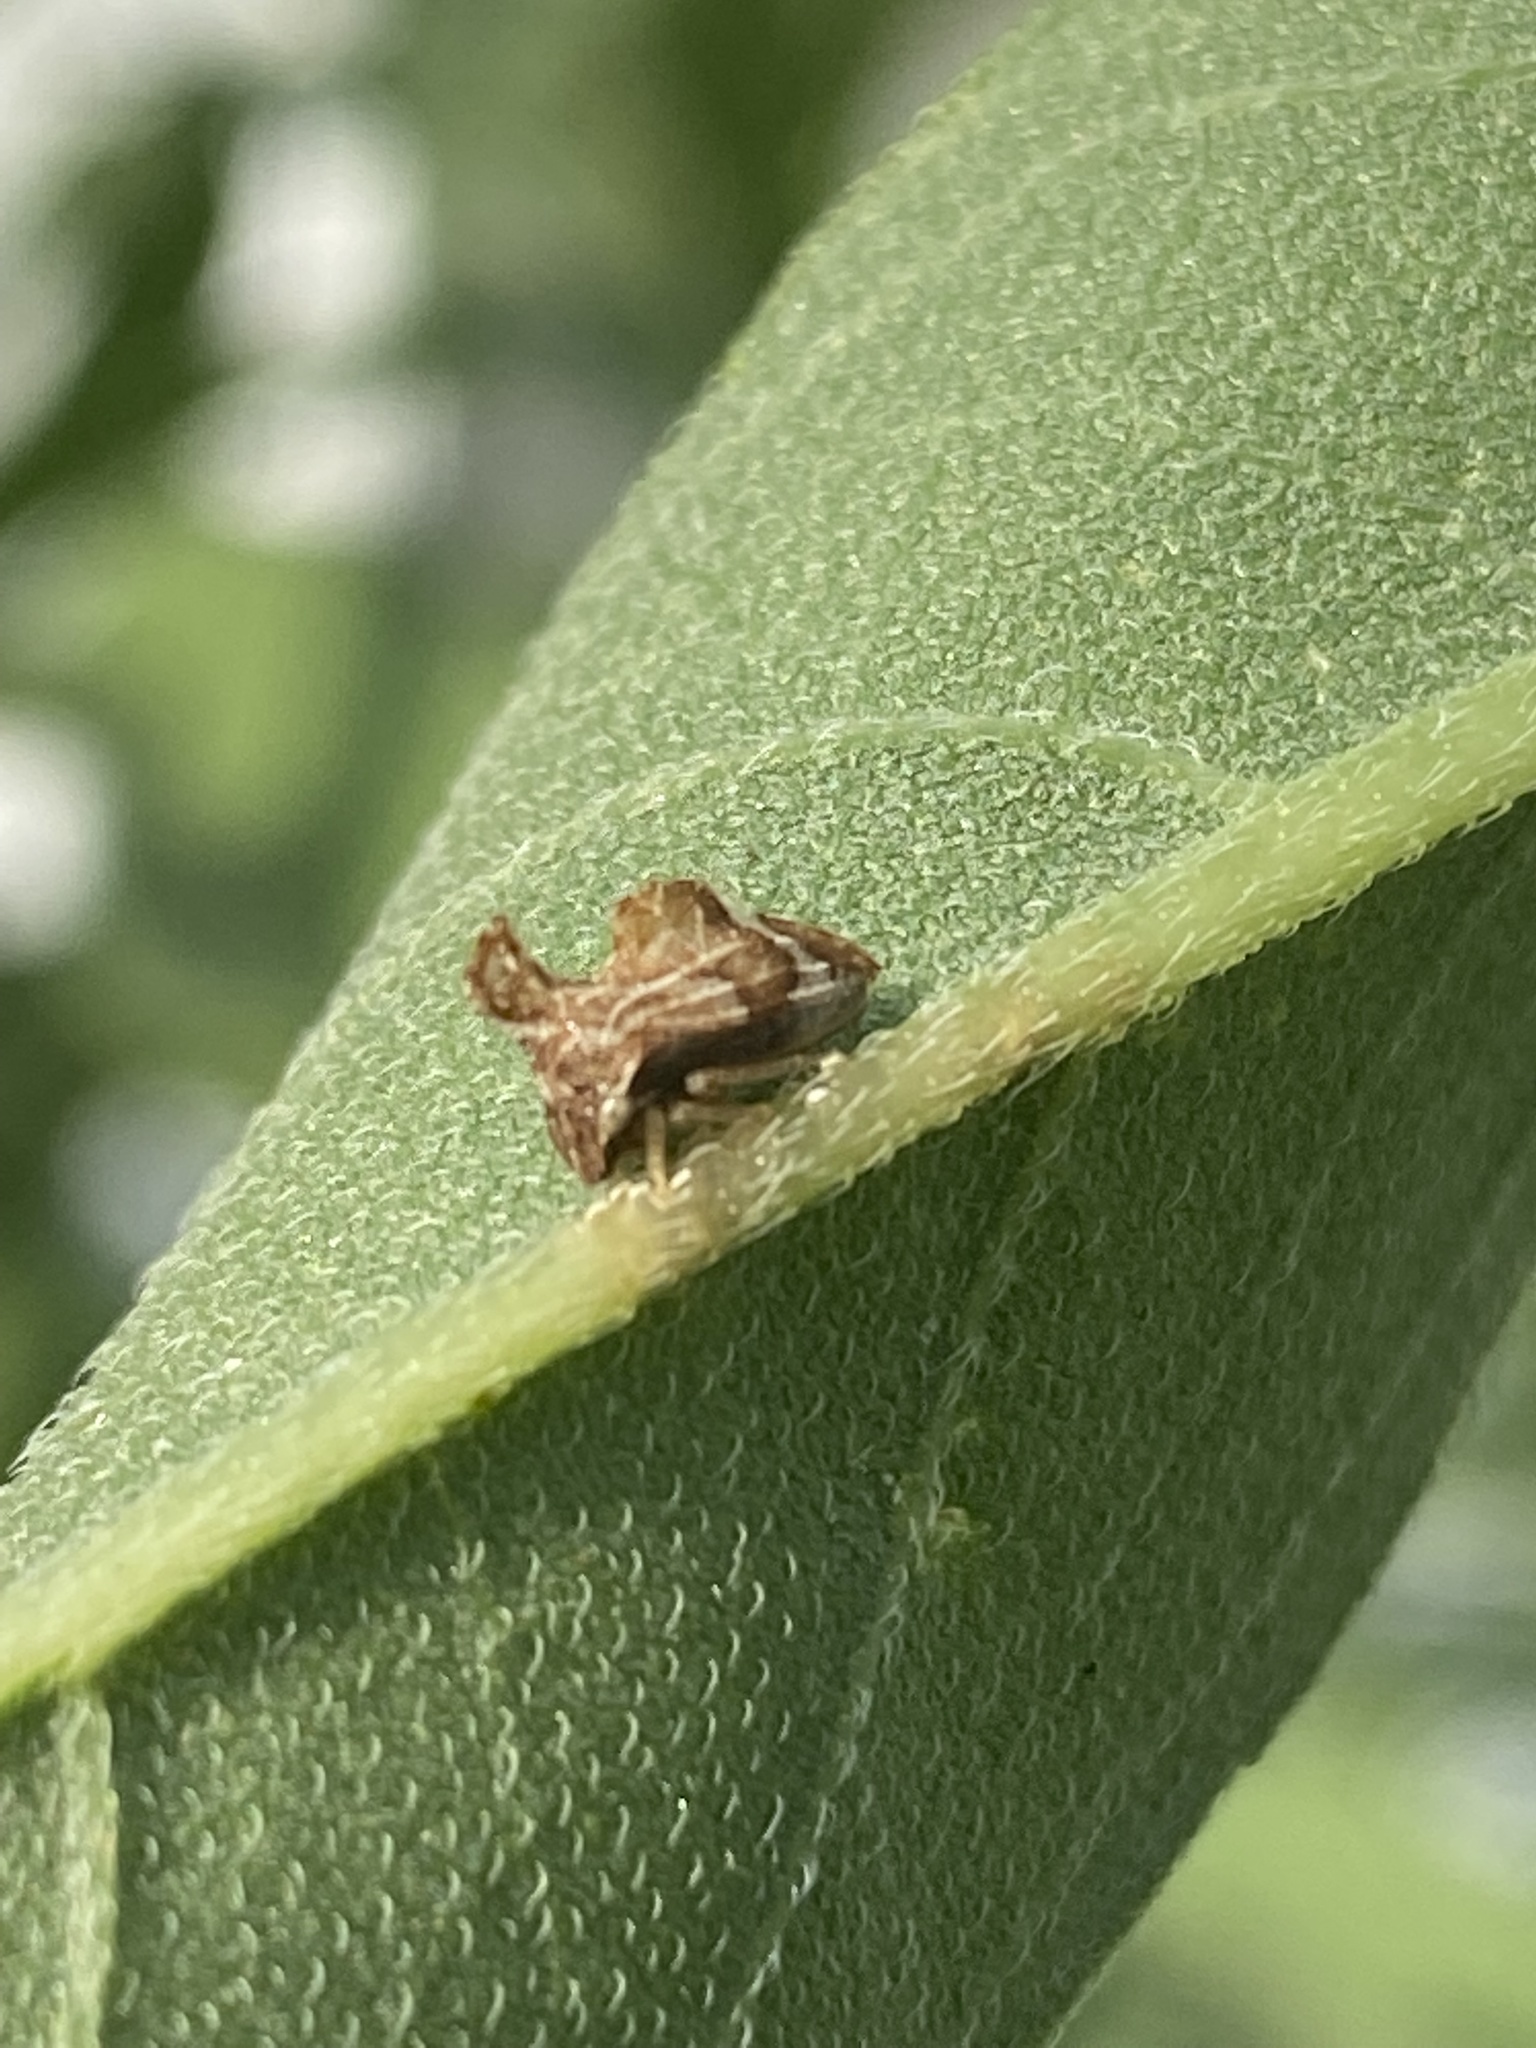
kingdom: Animalia
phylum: Arthropoda
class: Insecta
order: Hemiptera
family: Membracidae
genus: Entylia
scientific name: Entylia carinata
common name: Keeled treehopper
